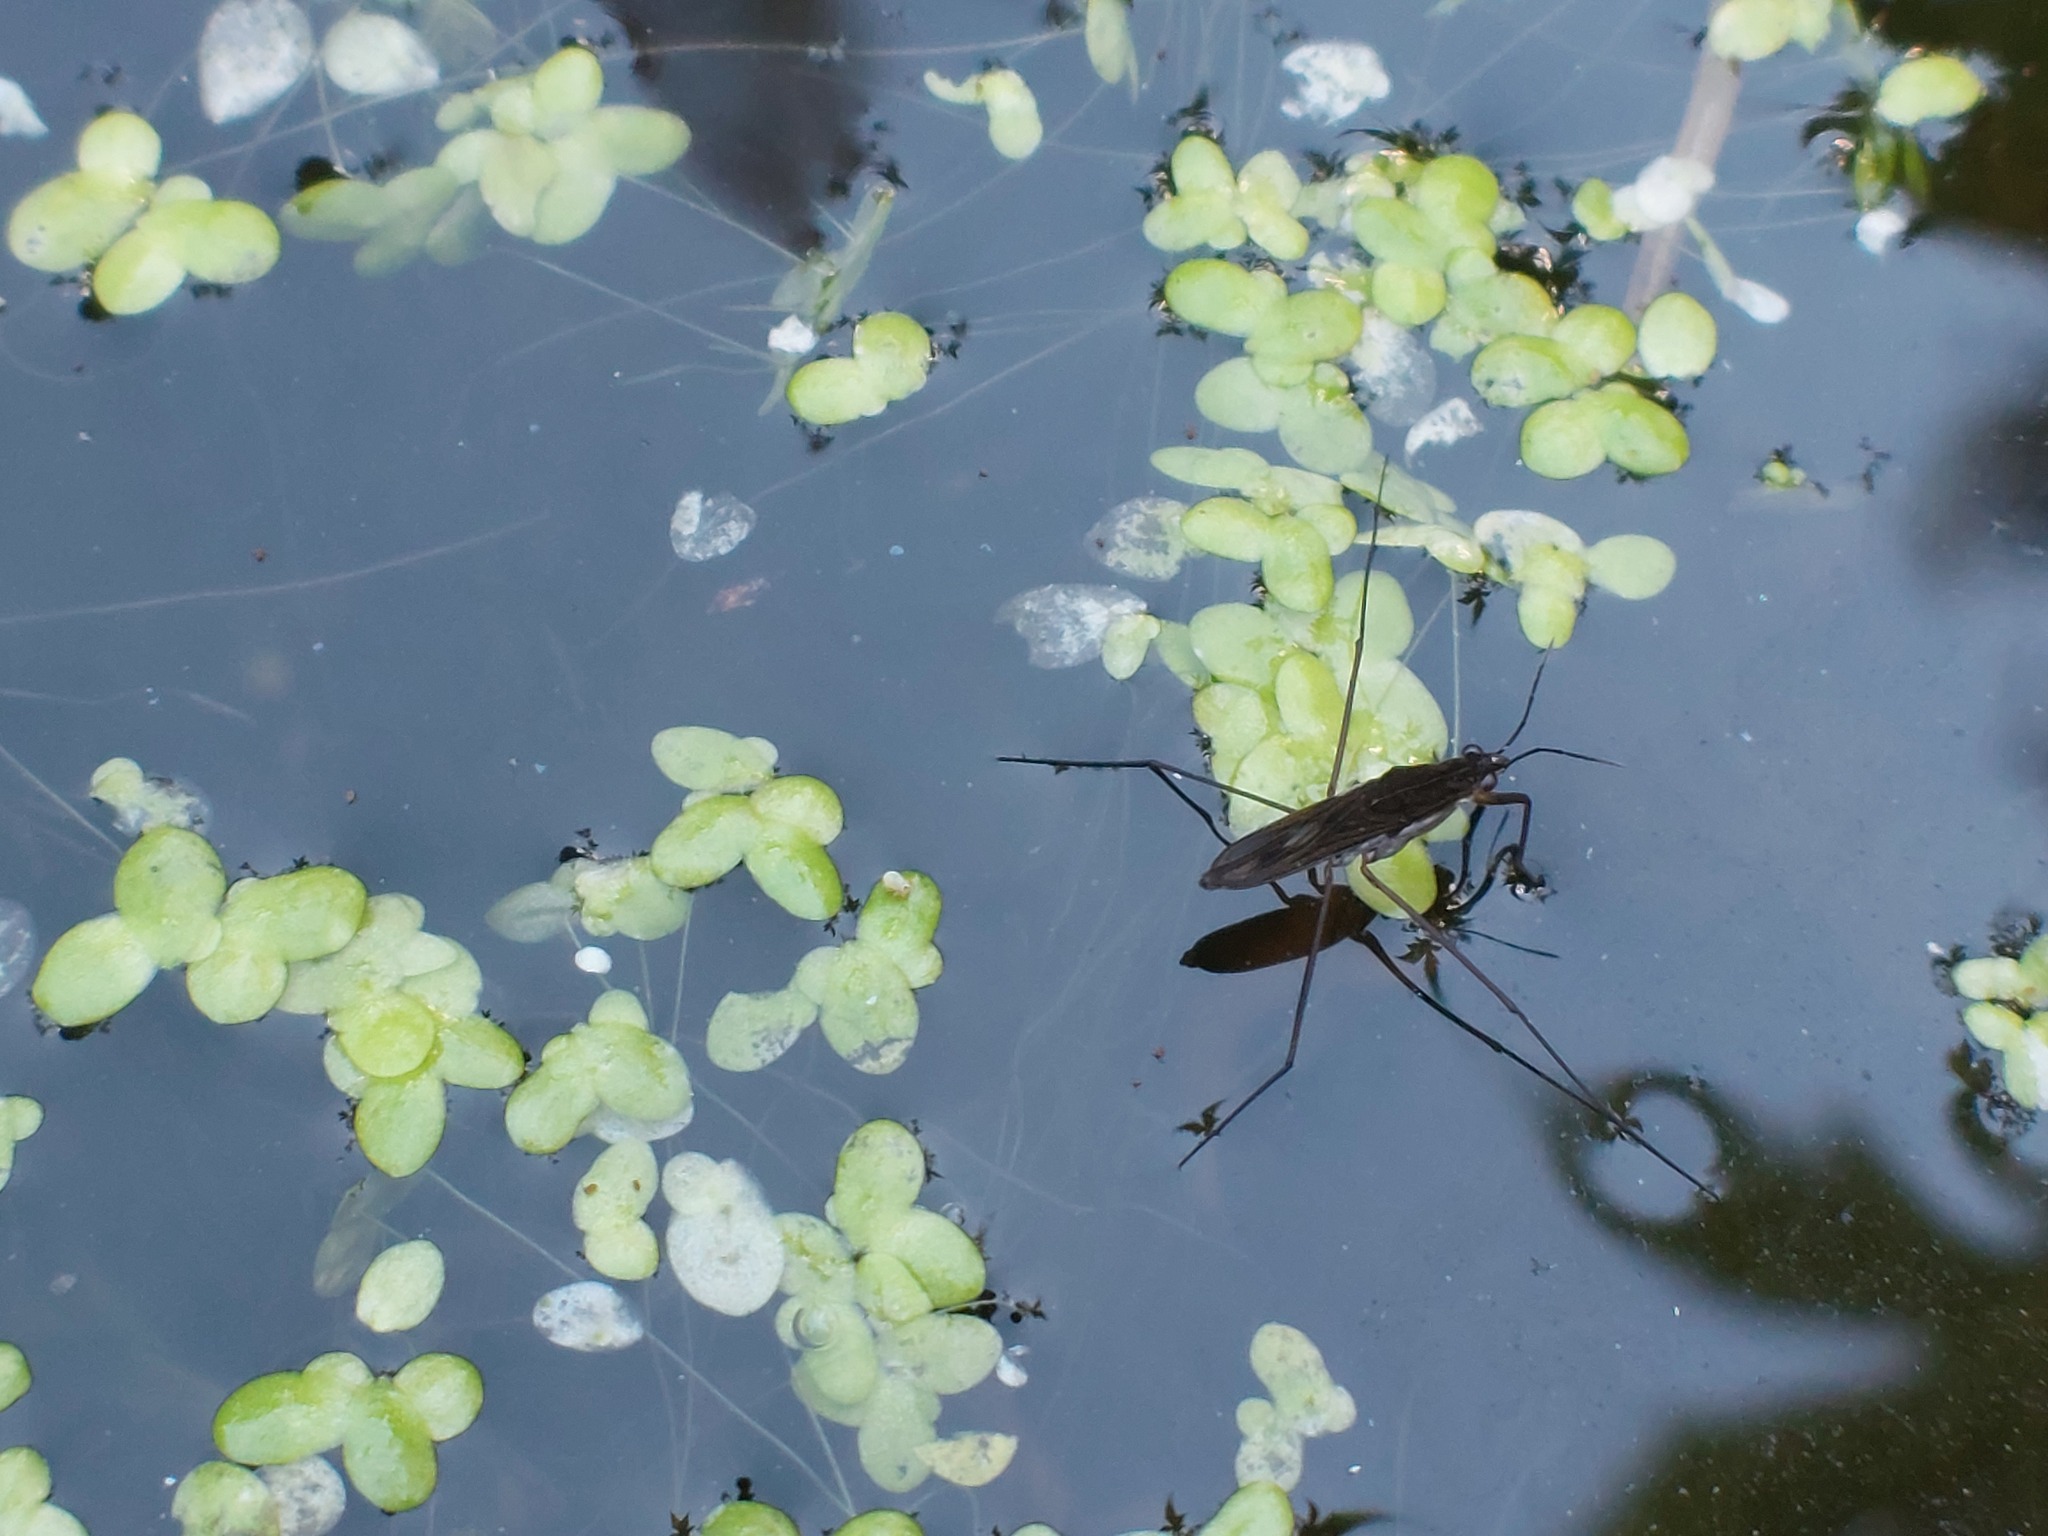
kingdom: Animalia
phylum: Arthropoda
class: Insecta
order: Hemiptera
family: Gerridae
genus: Gerris
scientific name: Gerris
